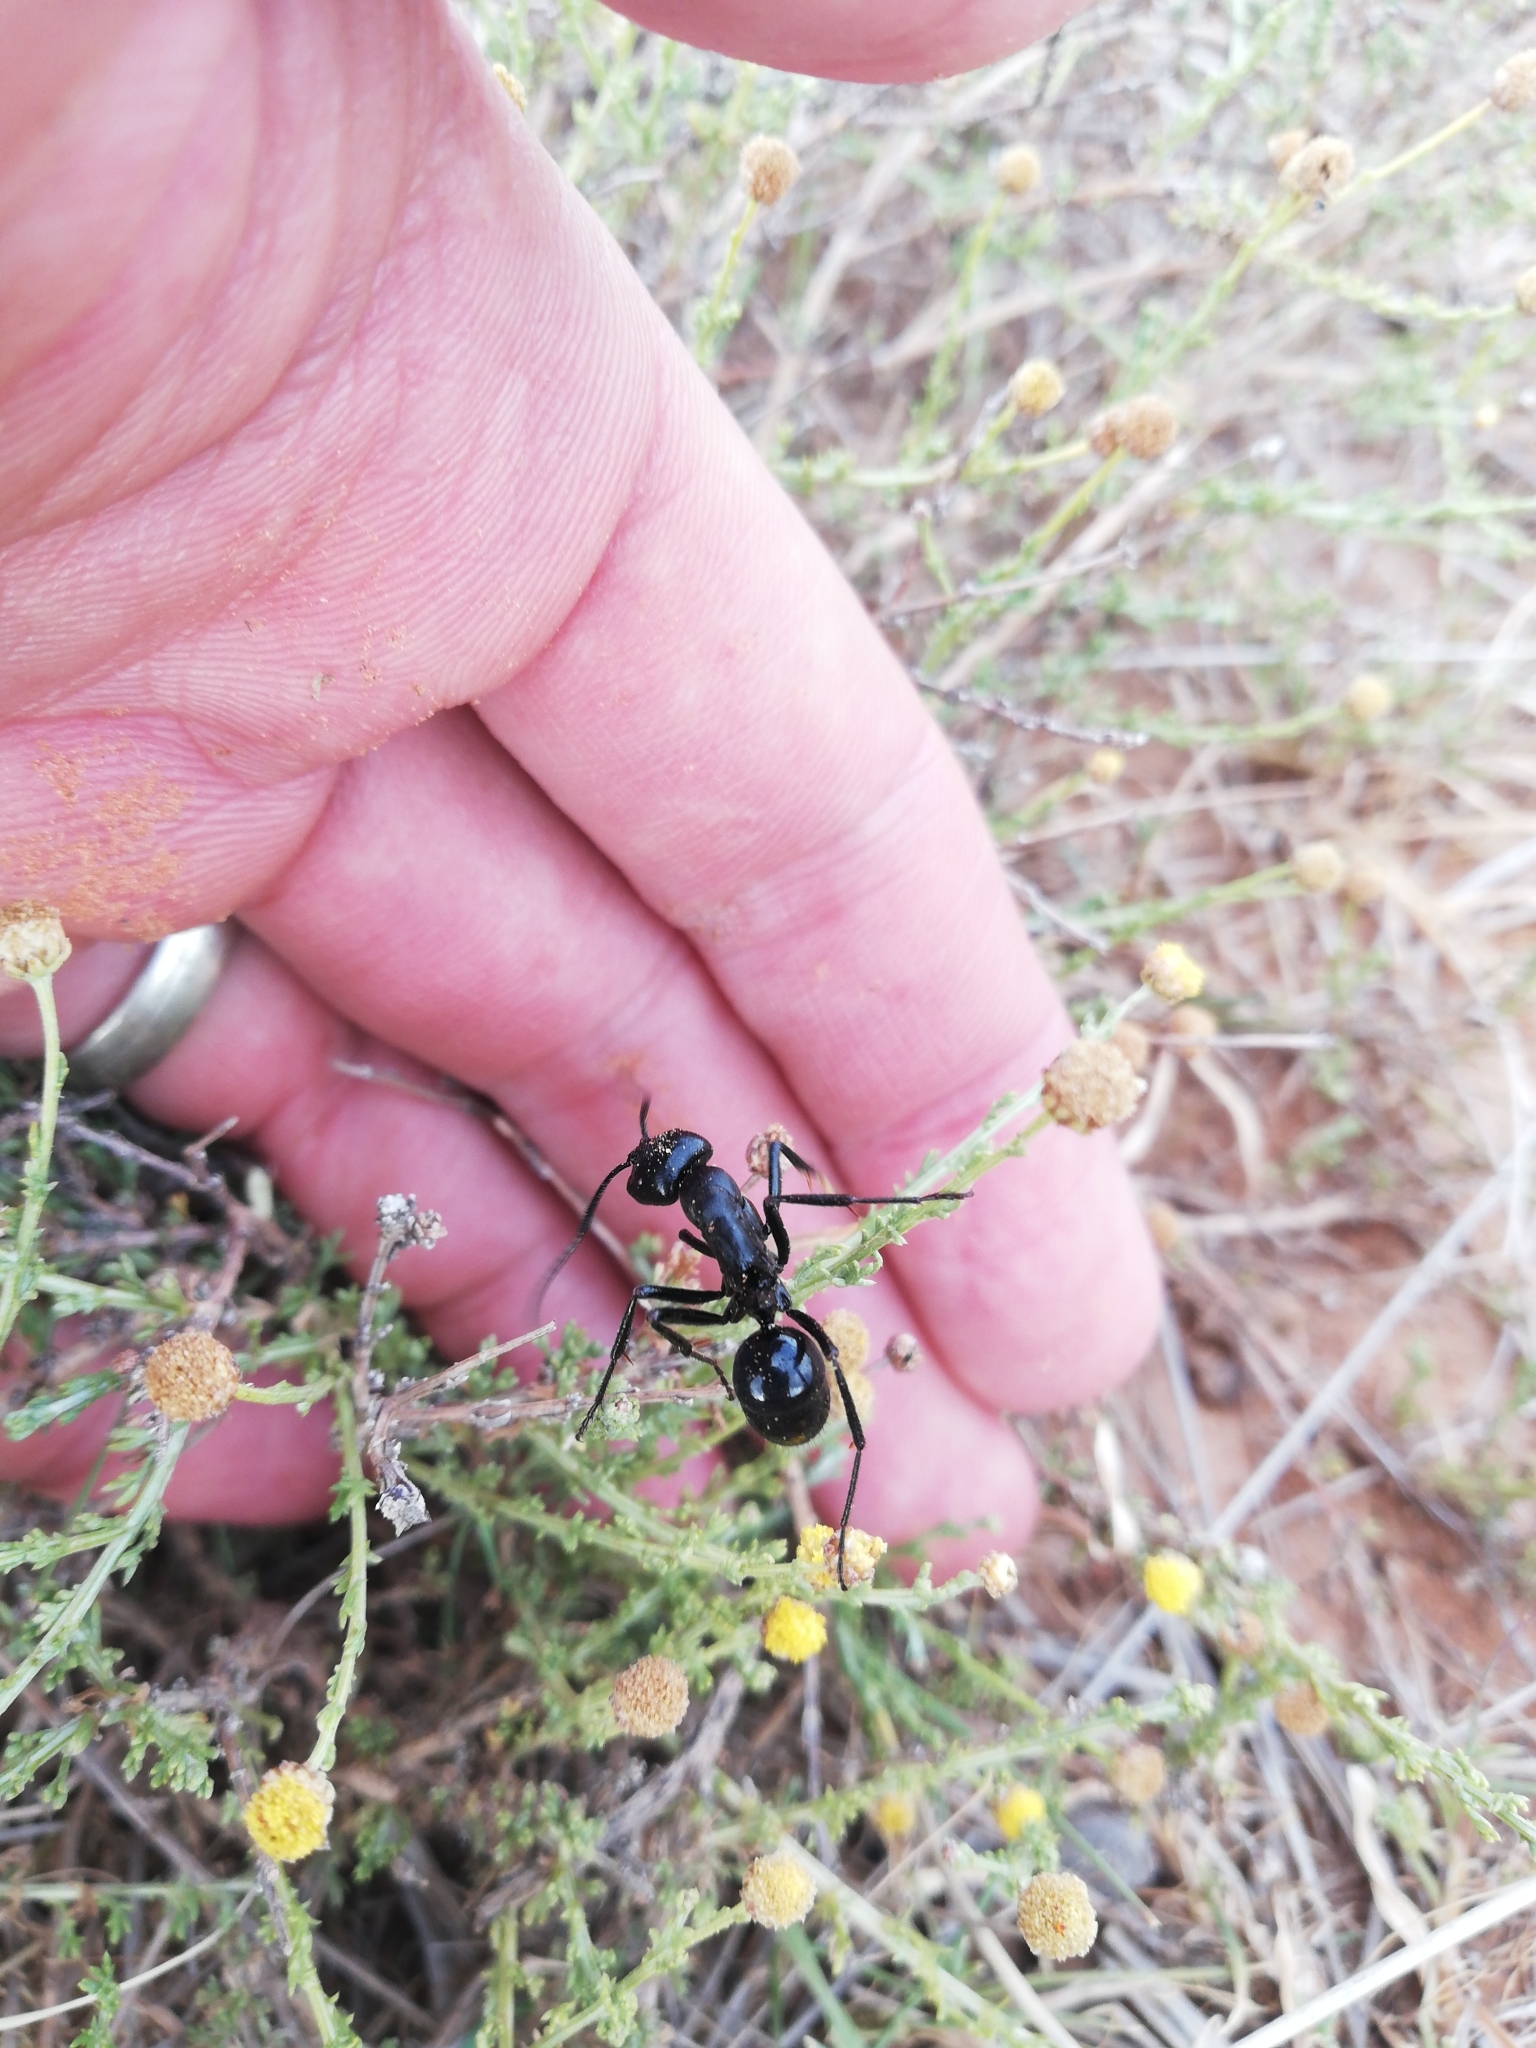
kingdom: Animalia
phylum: Arthropoda
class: Insecta
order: Hymenoptera
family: Formicidae
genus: Streblognathus
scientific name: Streblognathus peetersi
